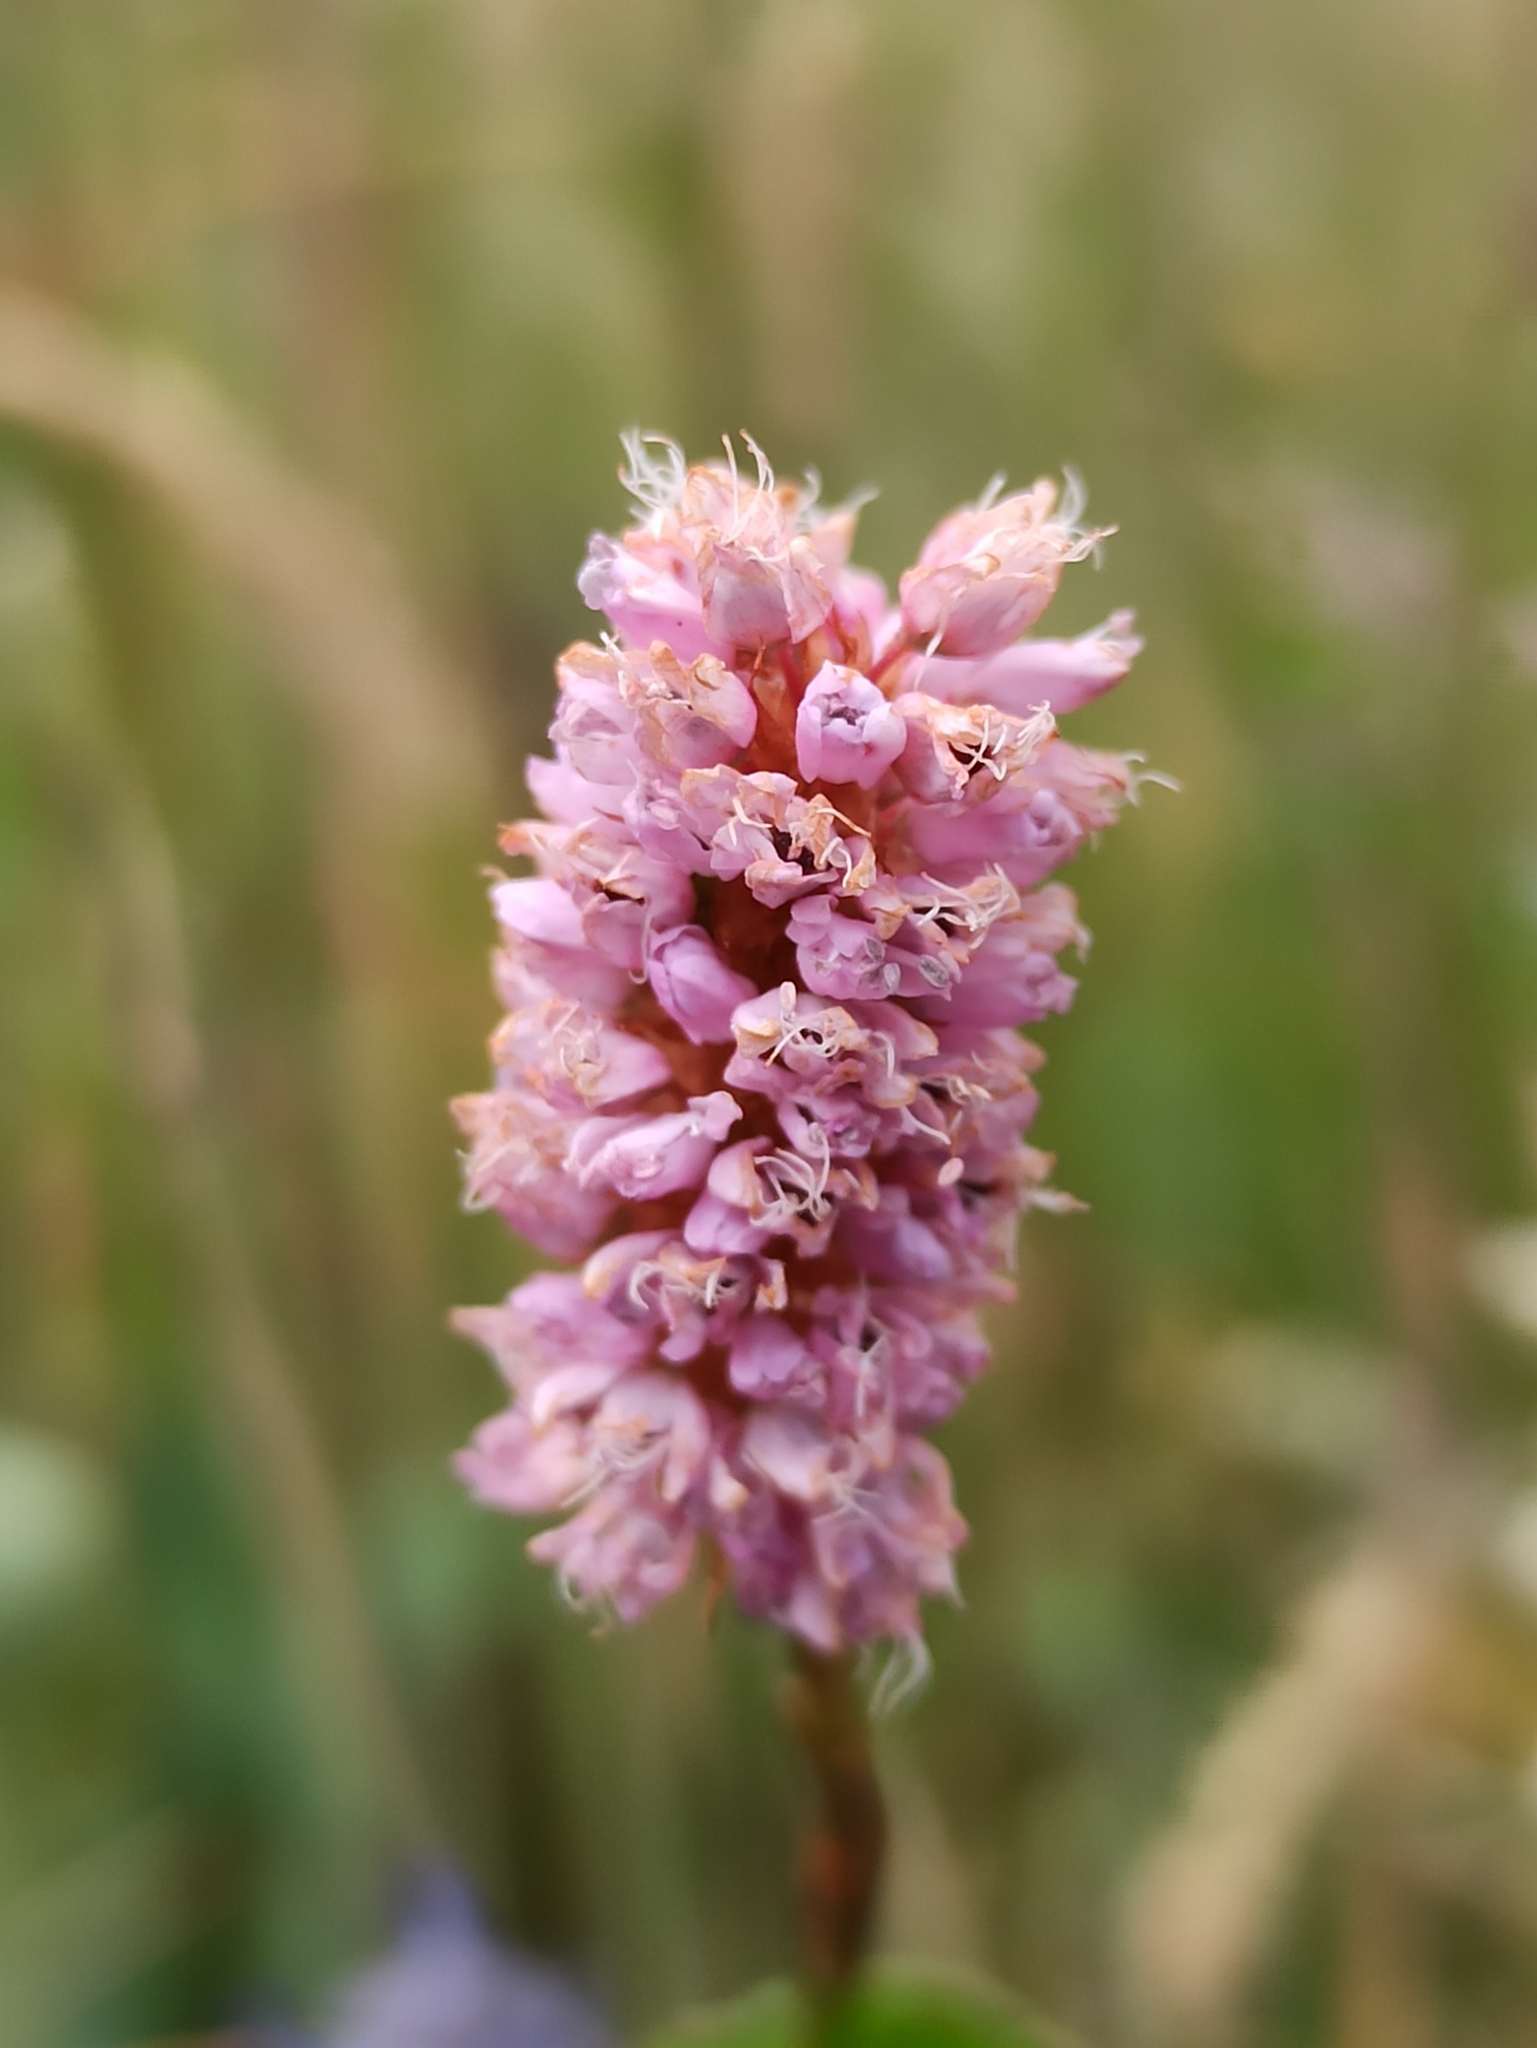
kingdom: Plantae
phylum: Tracheophyta
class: Magnoliopsida
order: Caryophyllales
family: Polygonaceae
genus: Bistorta
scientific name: Bistorta officinalis
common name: Common bistort
